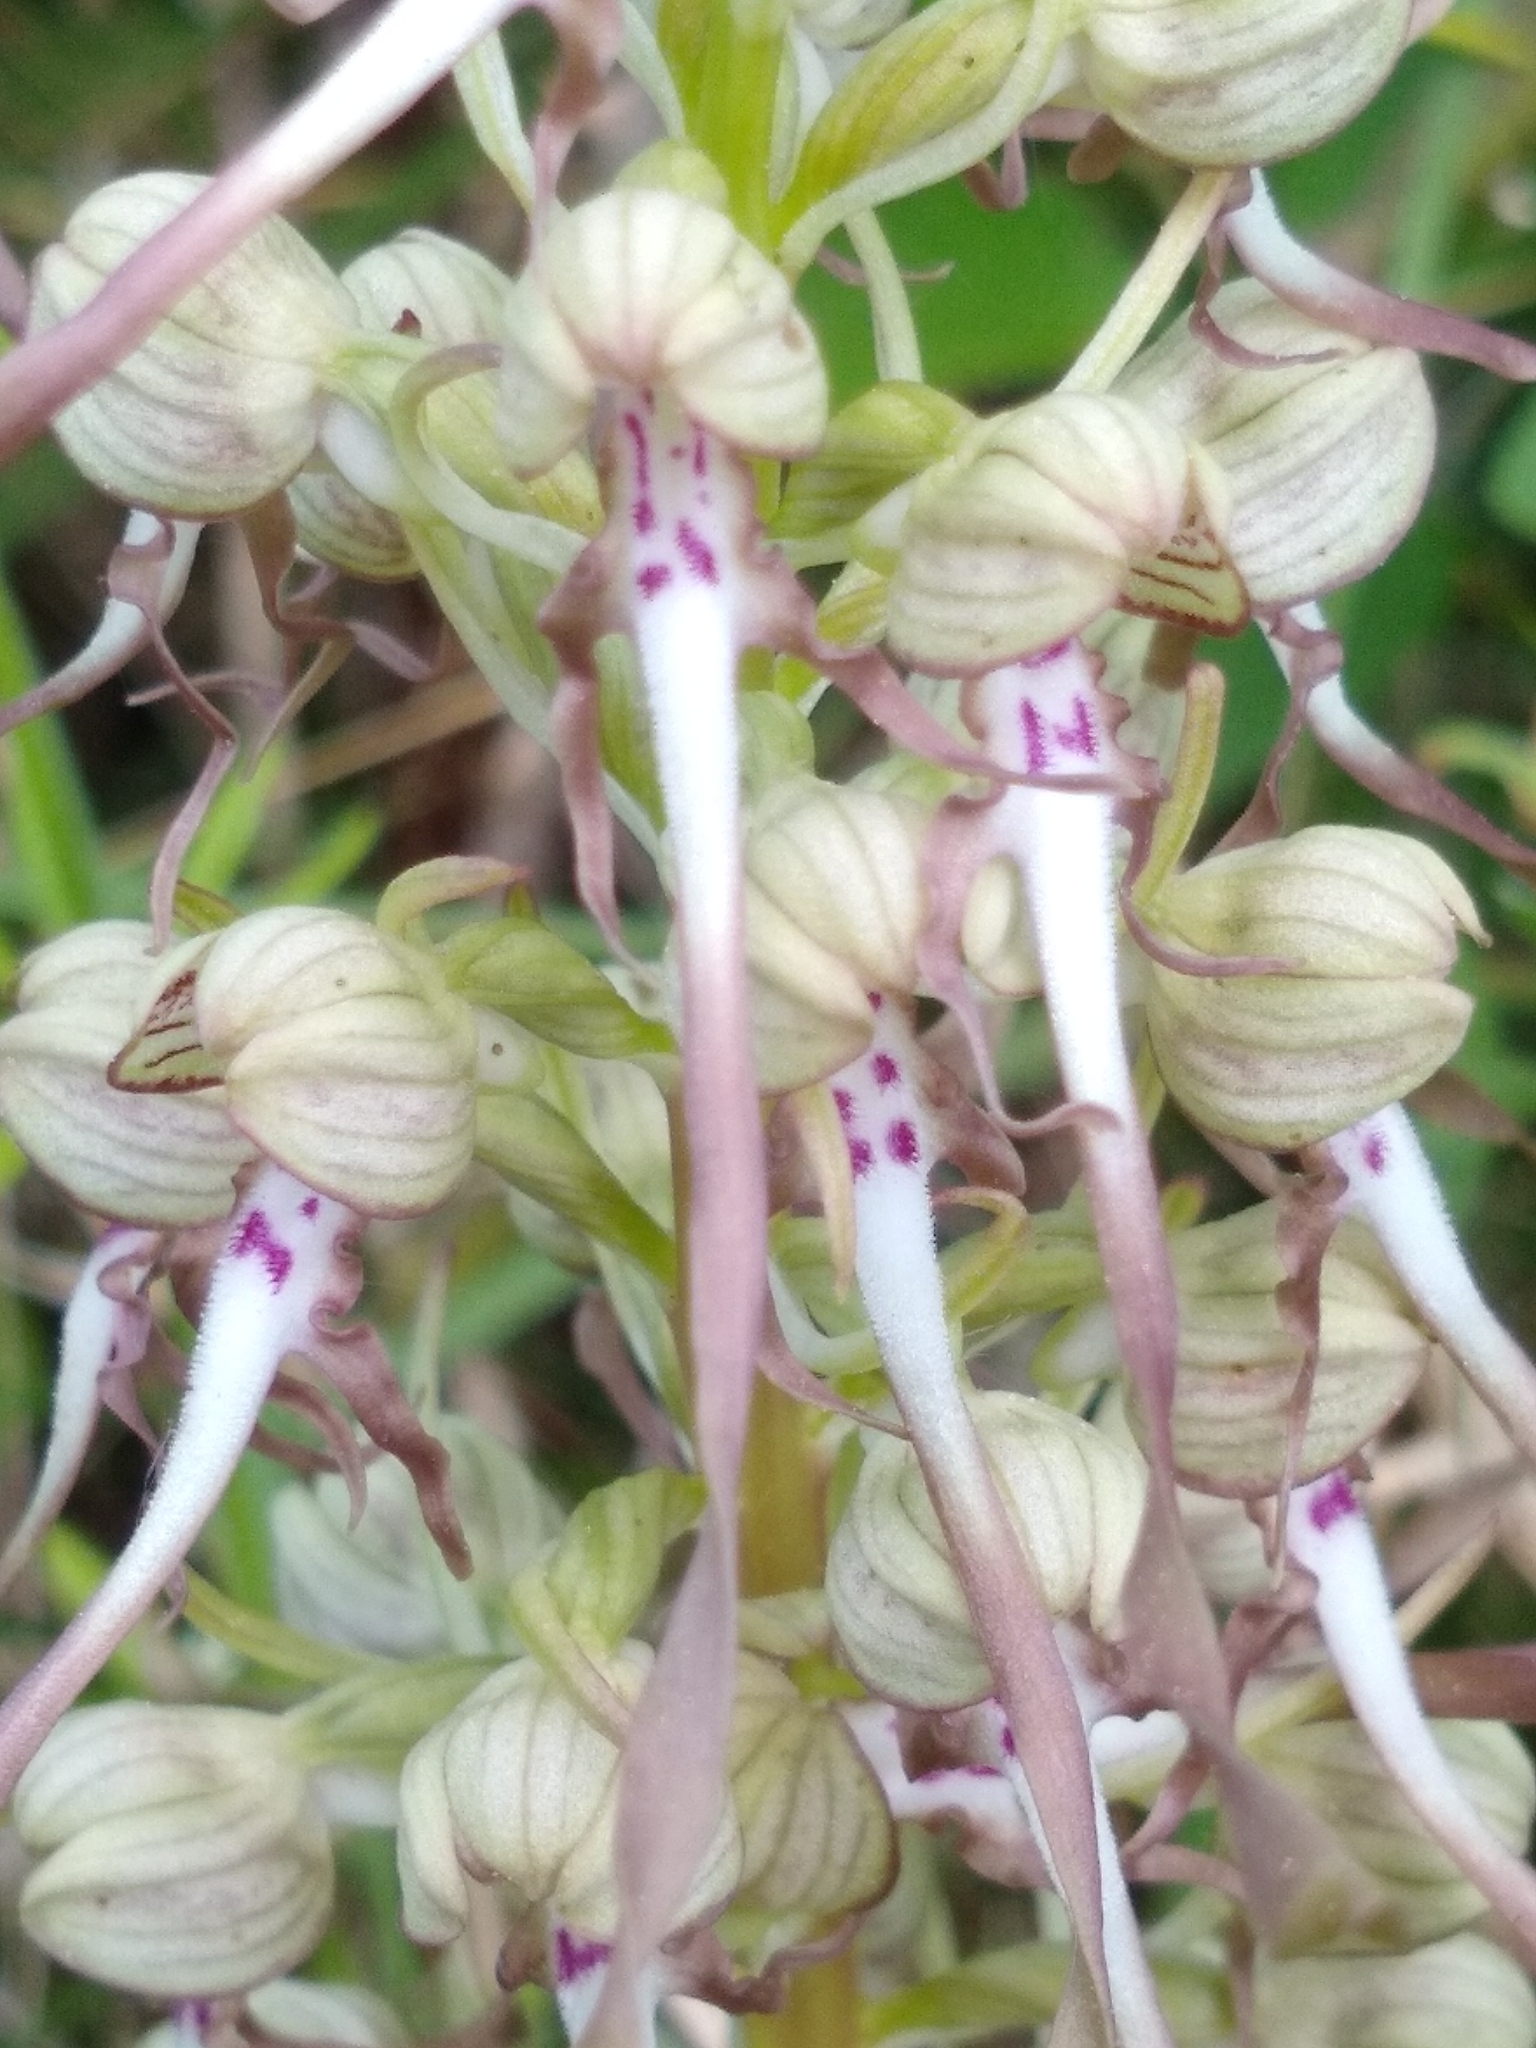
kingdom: Plantae
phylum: Tracheophyta
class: Liliopsida
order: Asparagales
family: Orchidaceae
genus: Himantoglossum
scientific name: Himantoglossum hircinum
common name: Lizard orchid
